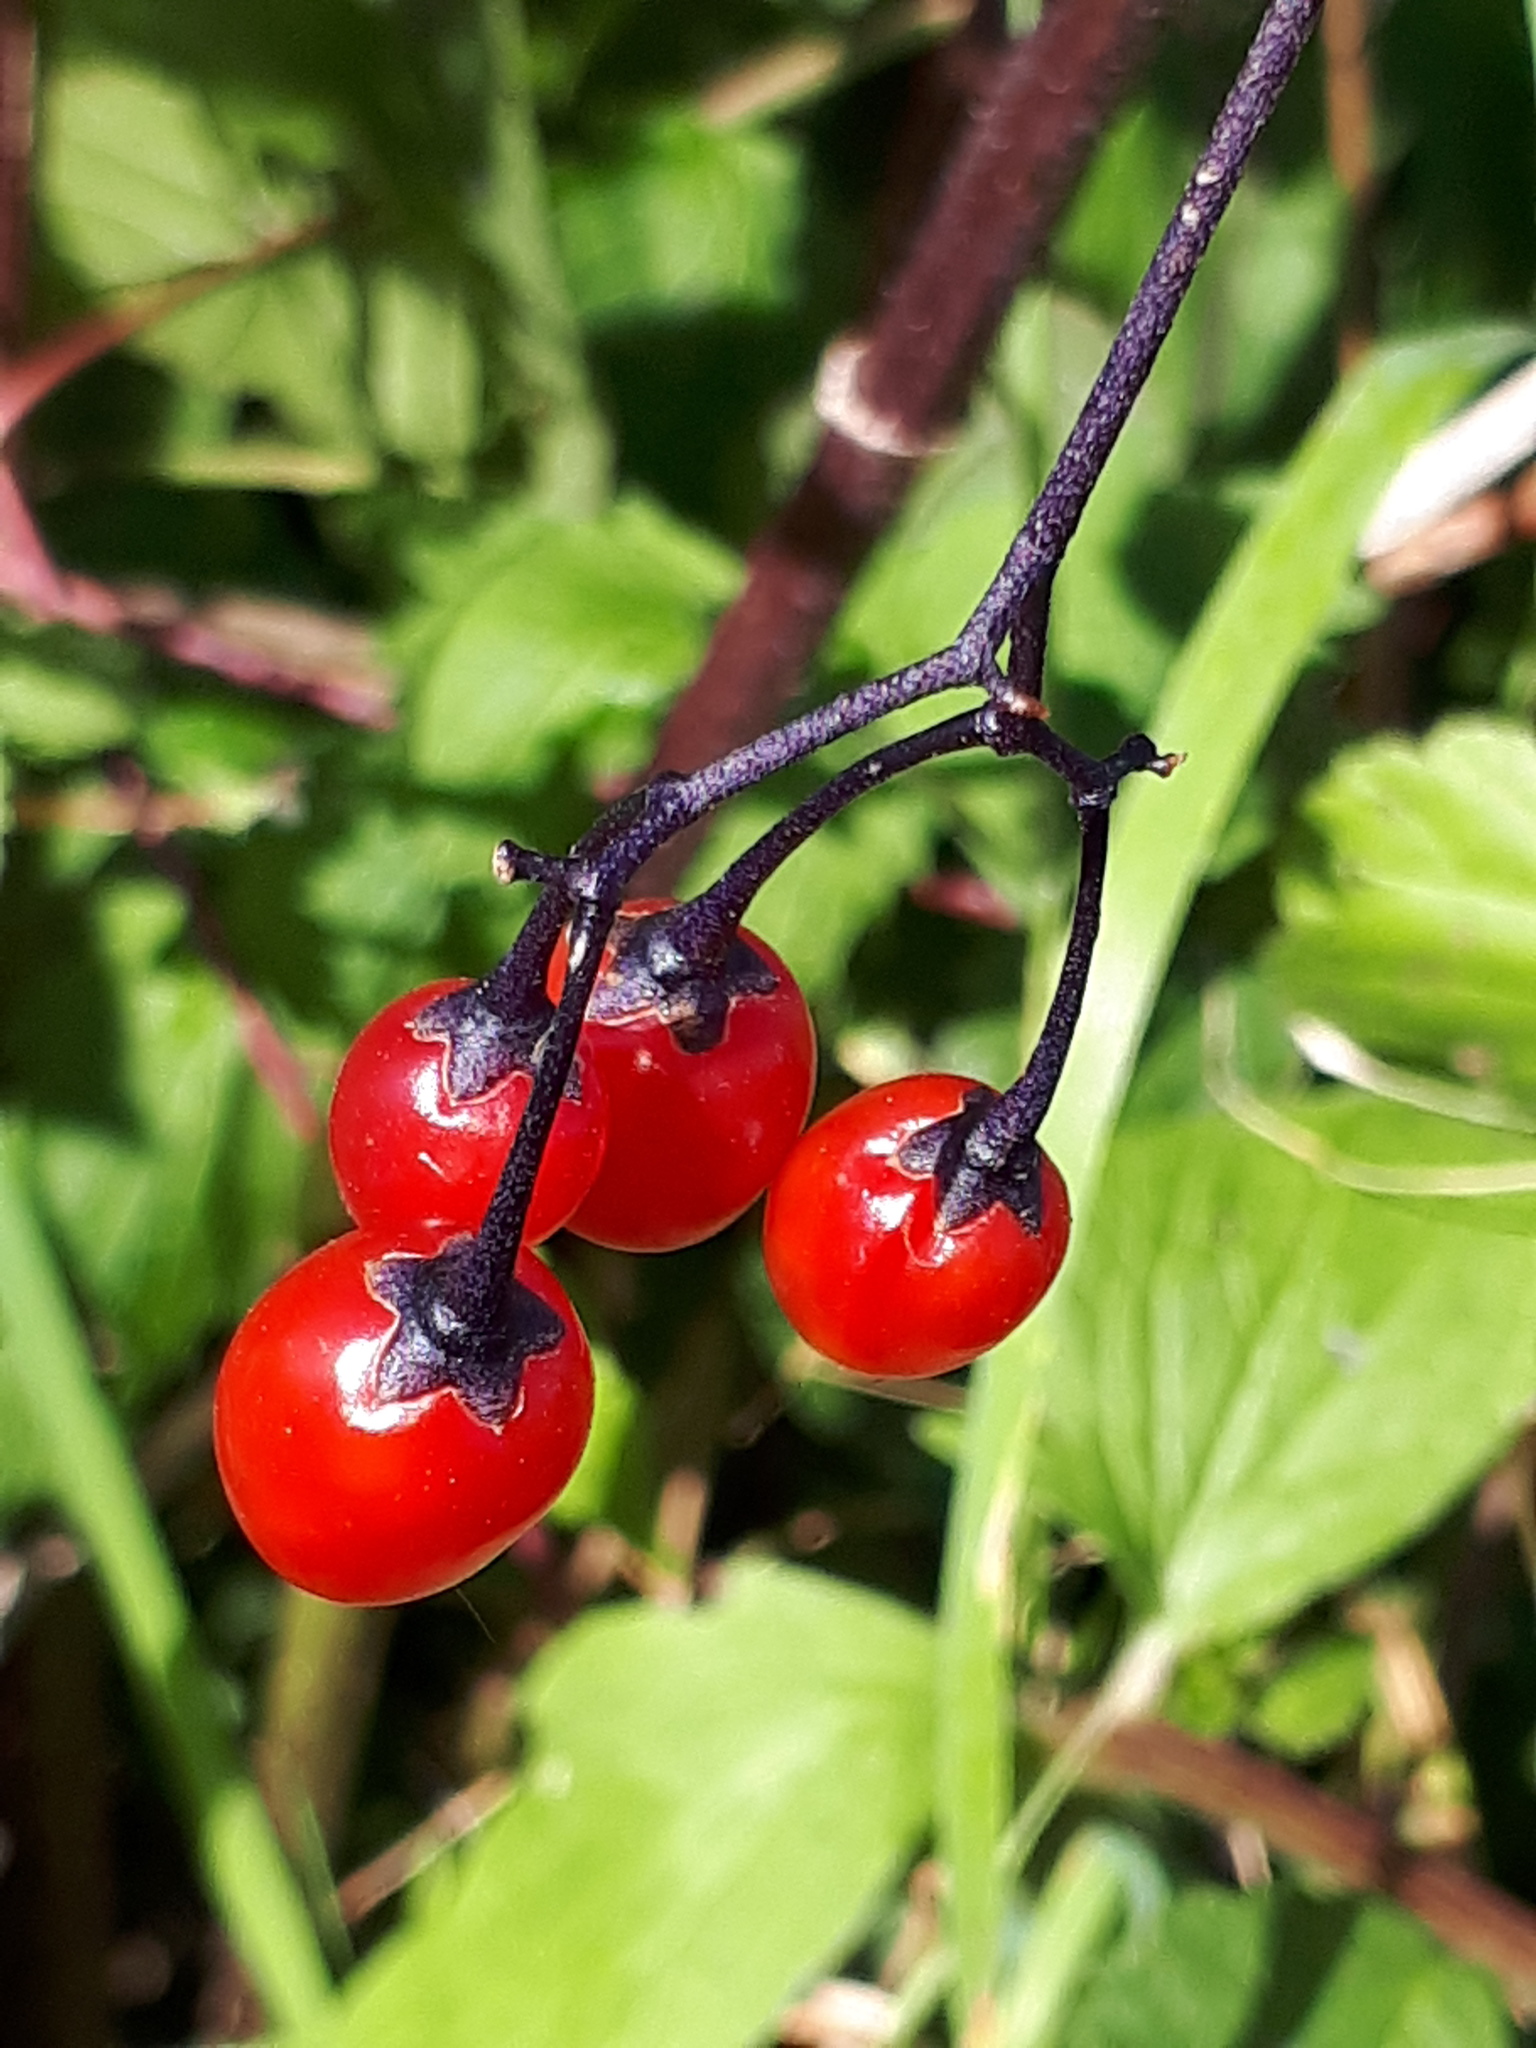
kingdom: Plantae
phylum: Tracheophyta
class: Magnoliopsida
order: Solanales
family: Solanaceae
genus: Solanum
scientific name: Solanum dulcamara
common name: Climbing nightshade
